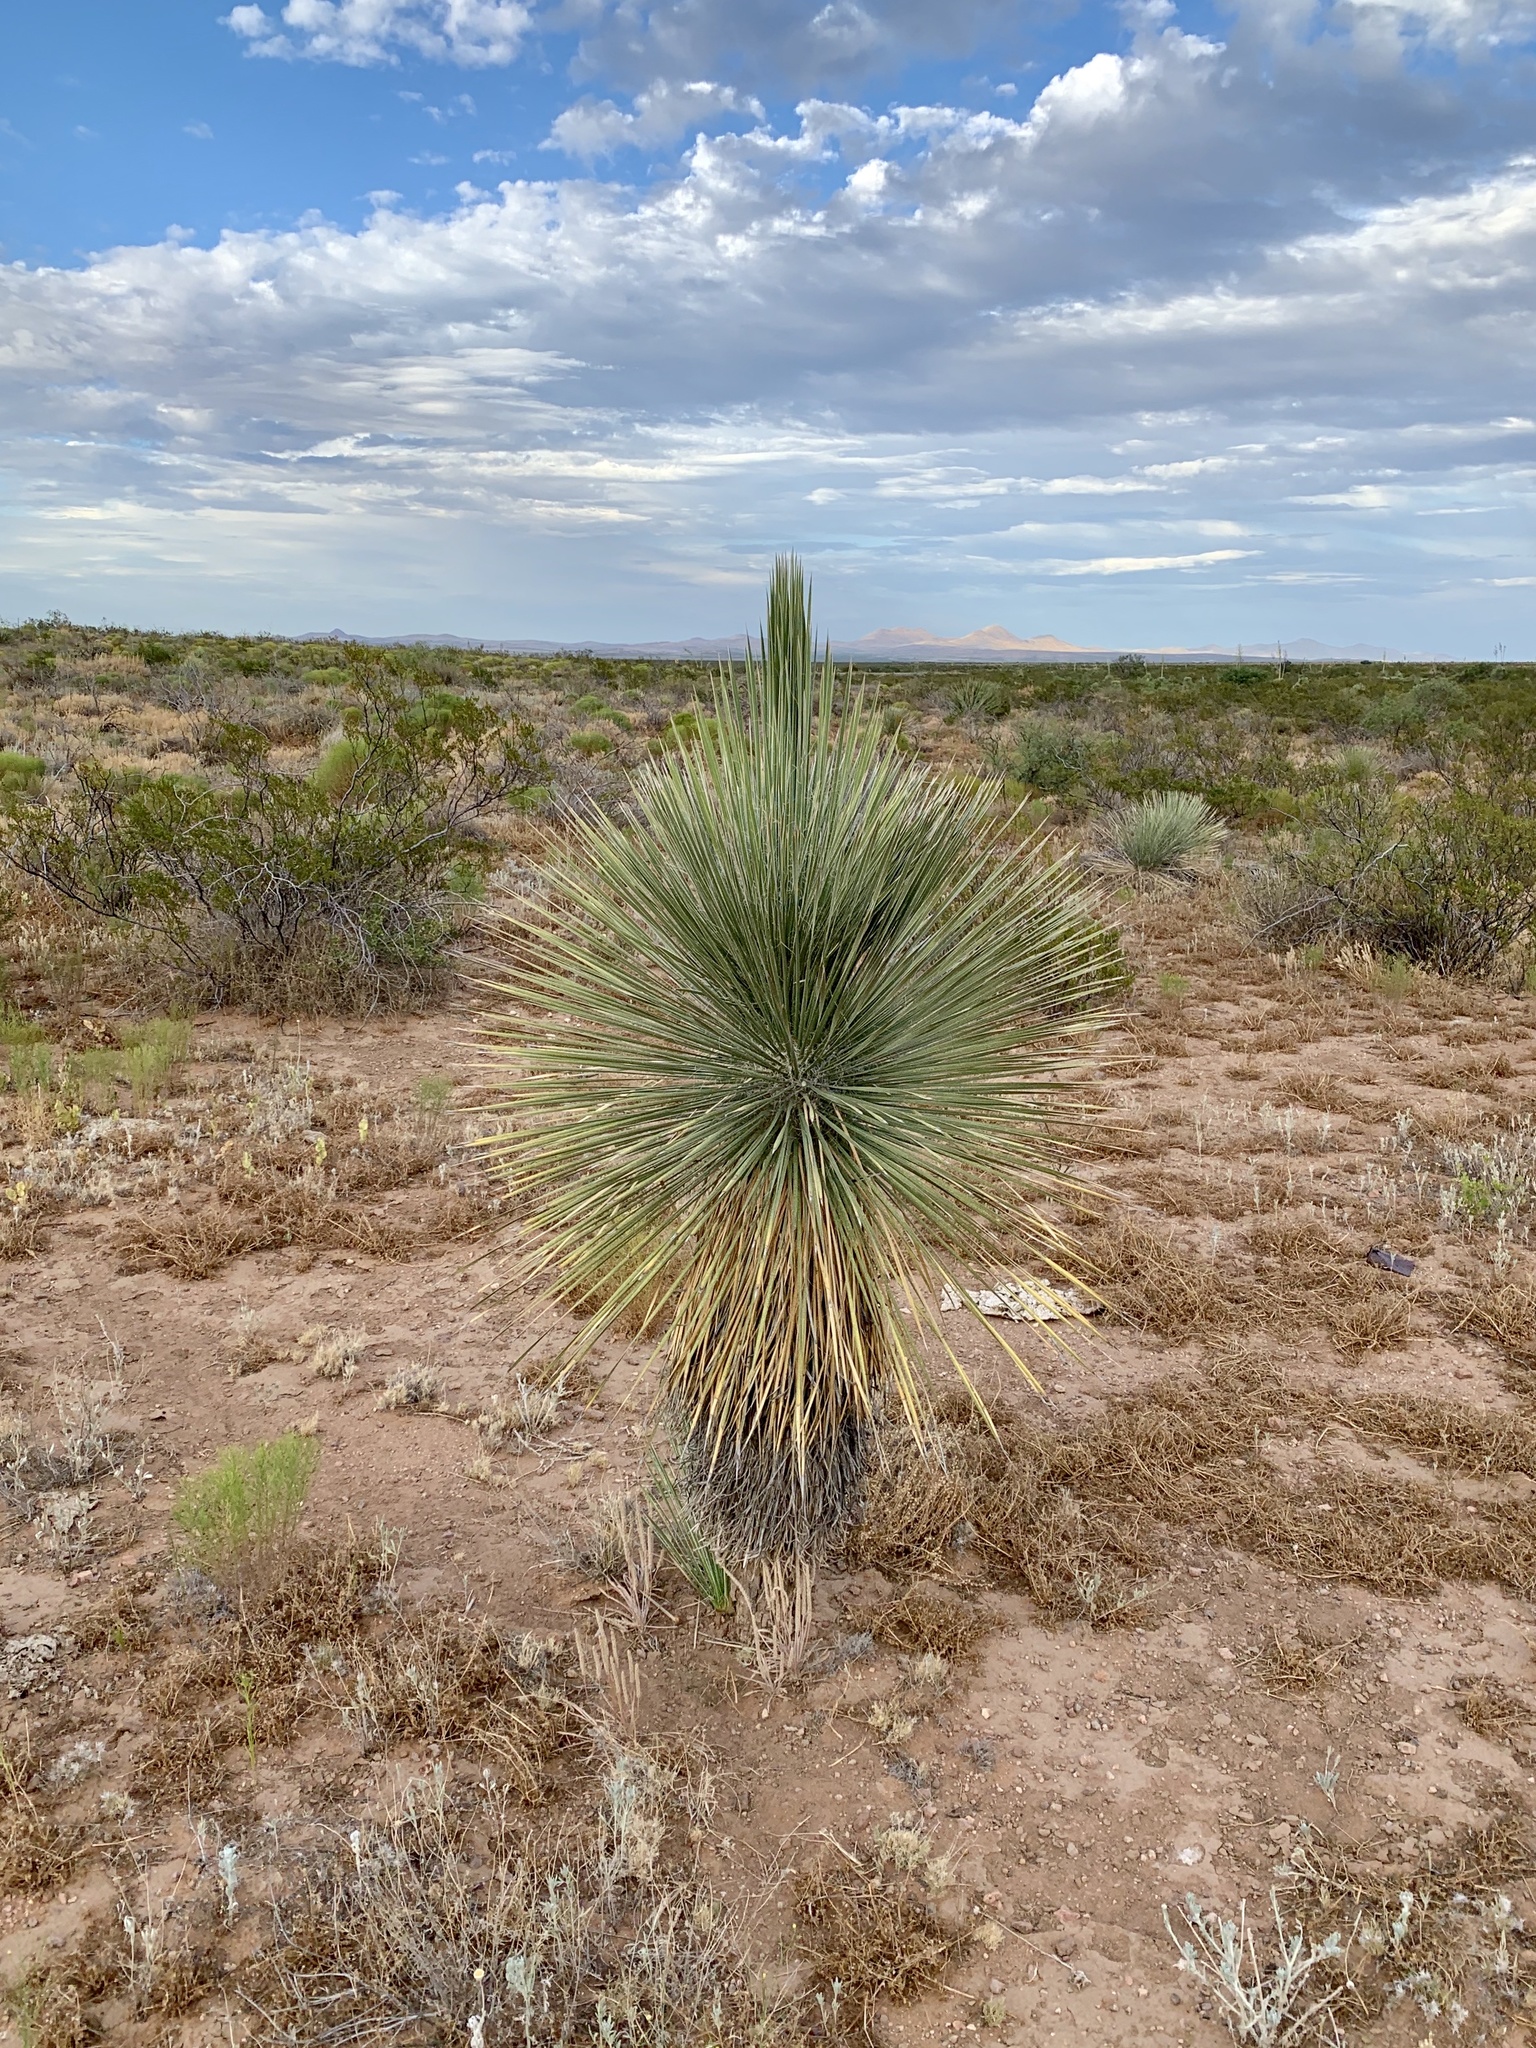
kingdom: Plantae
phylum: Tracheophyta
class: Liliopsida
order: Asparagales
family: Asparagaceae
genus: Yucca
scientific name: Yucca elata
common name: Palmella
